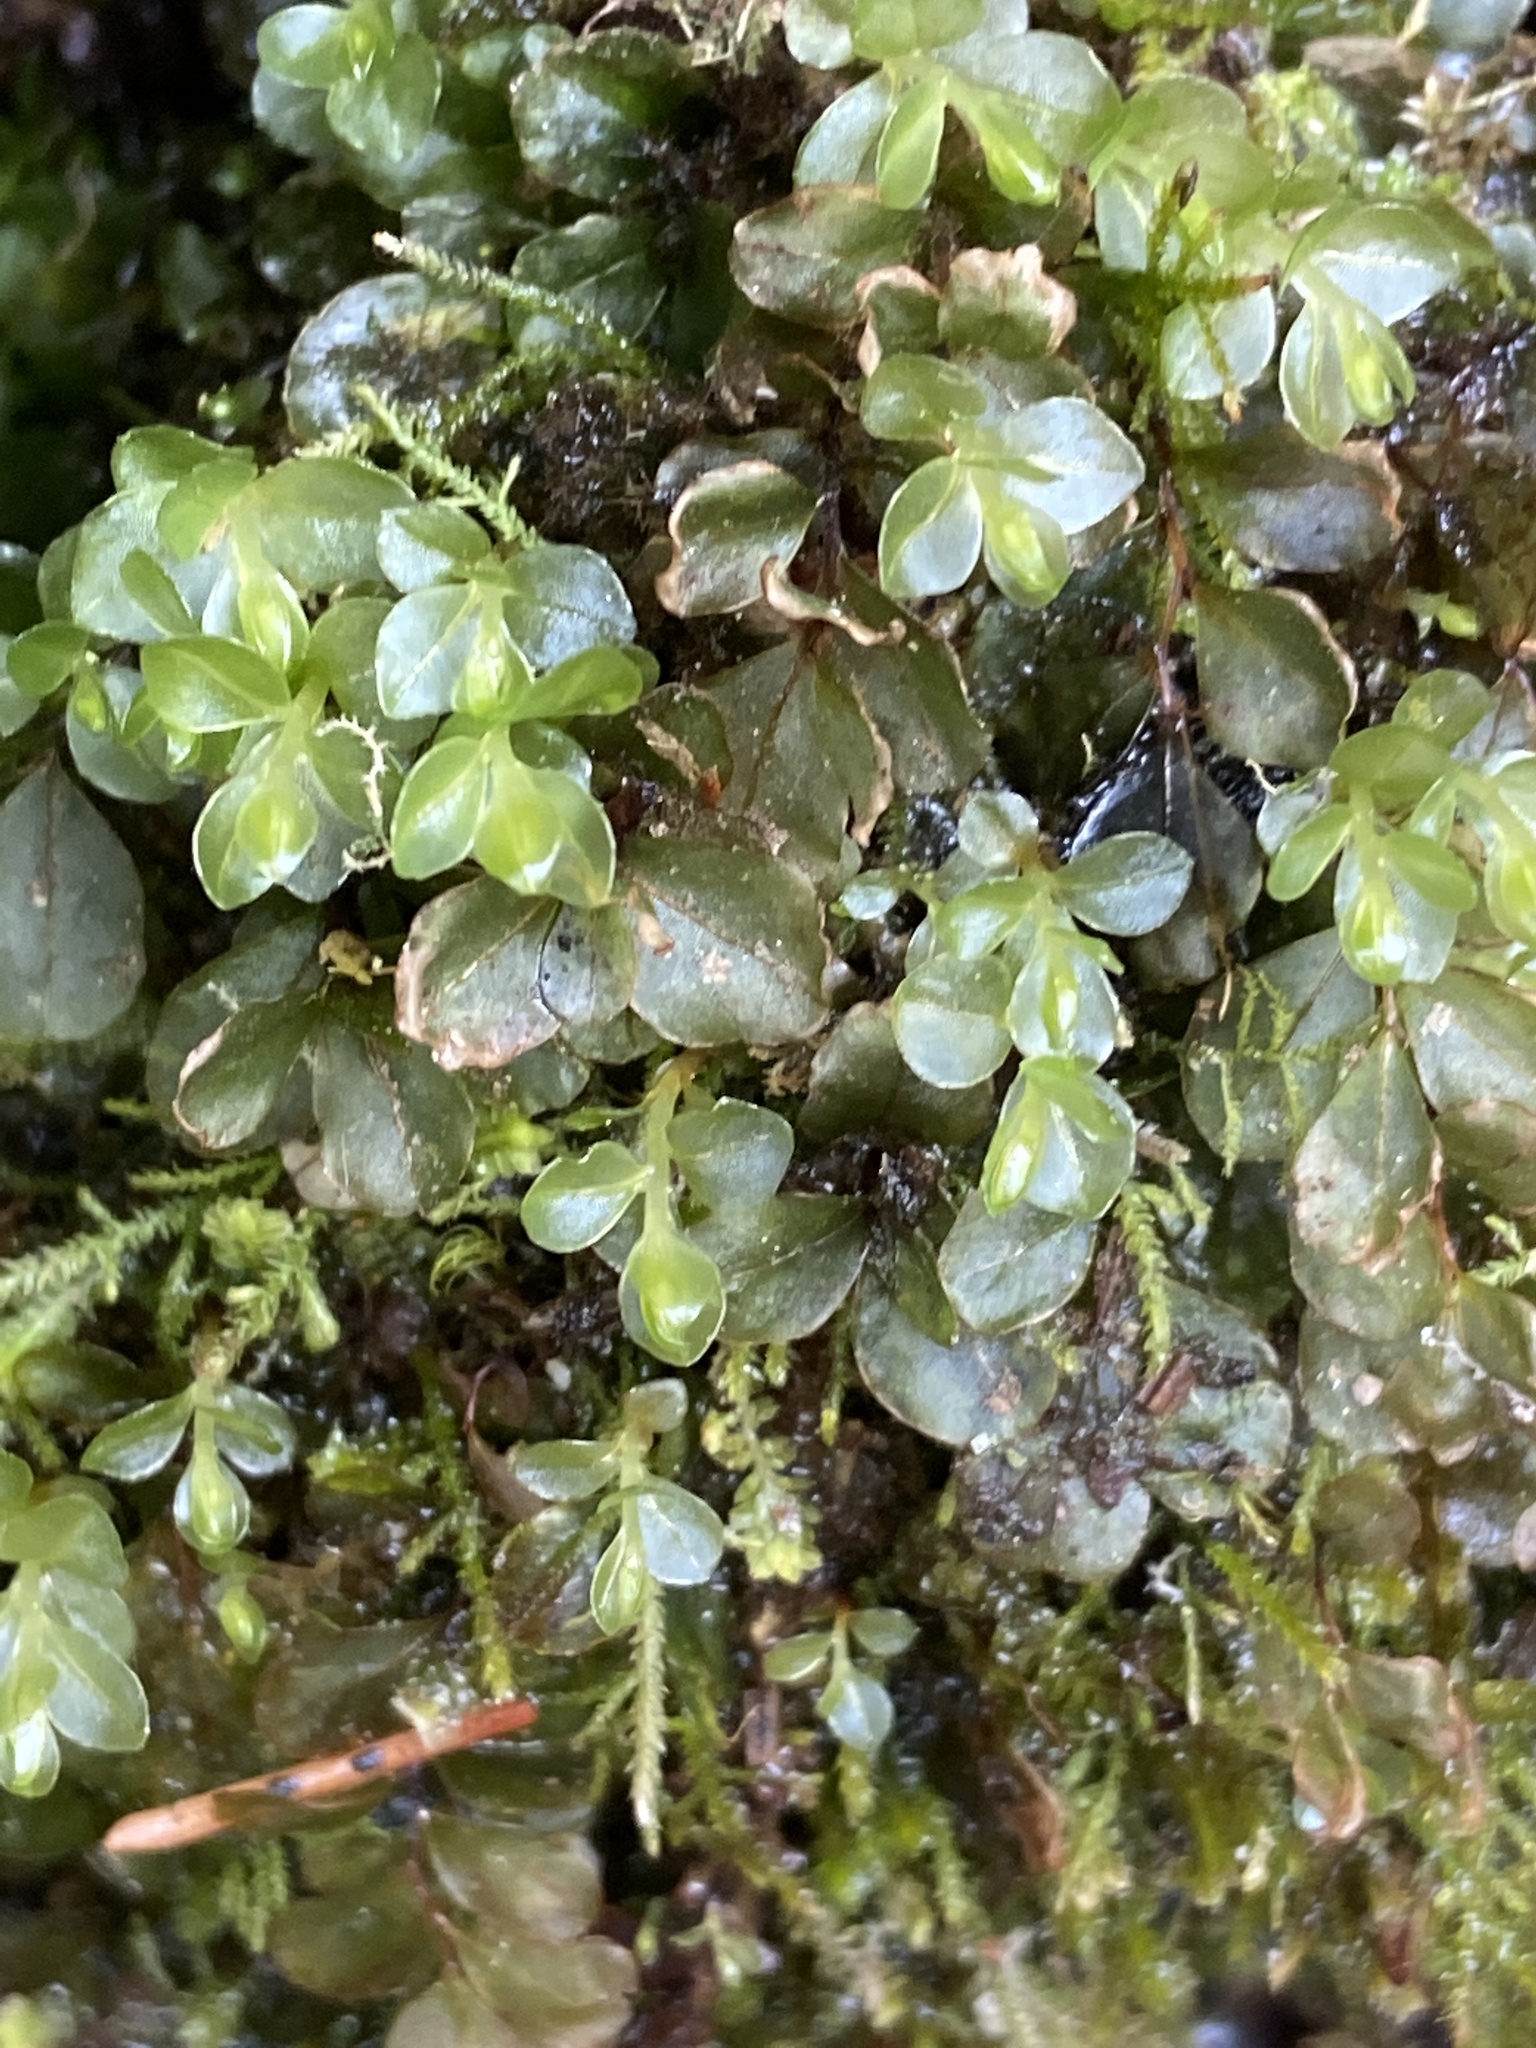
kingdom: Plantae
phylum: Bryophyta
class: Bryopsida
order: Bryales
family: Mniaceae
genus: Rhizomnium
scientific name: Rhizomnium punctatum
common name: Dotted leafy moss
